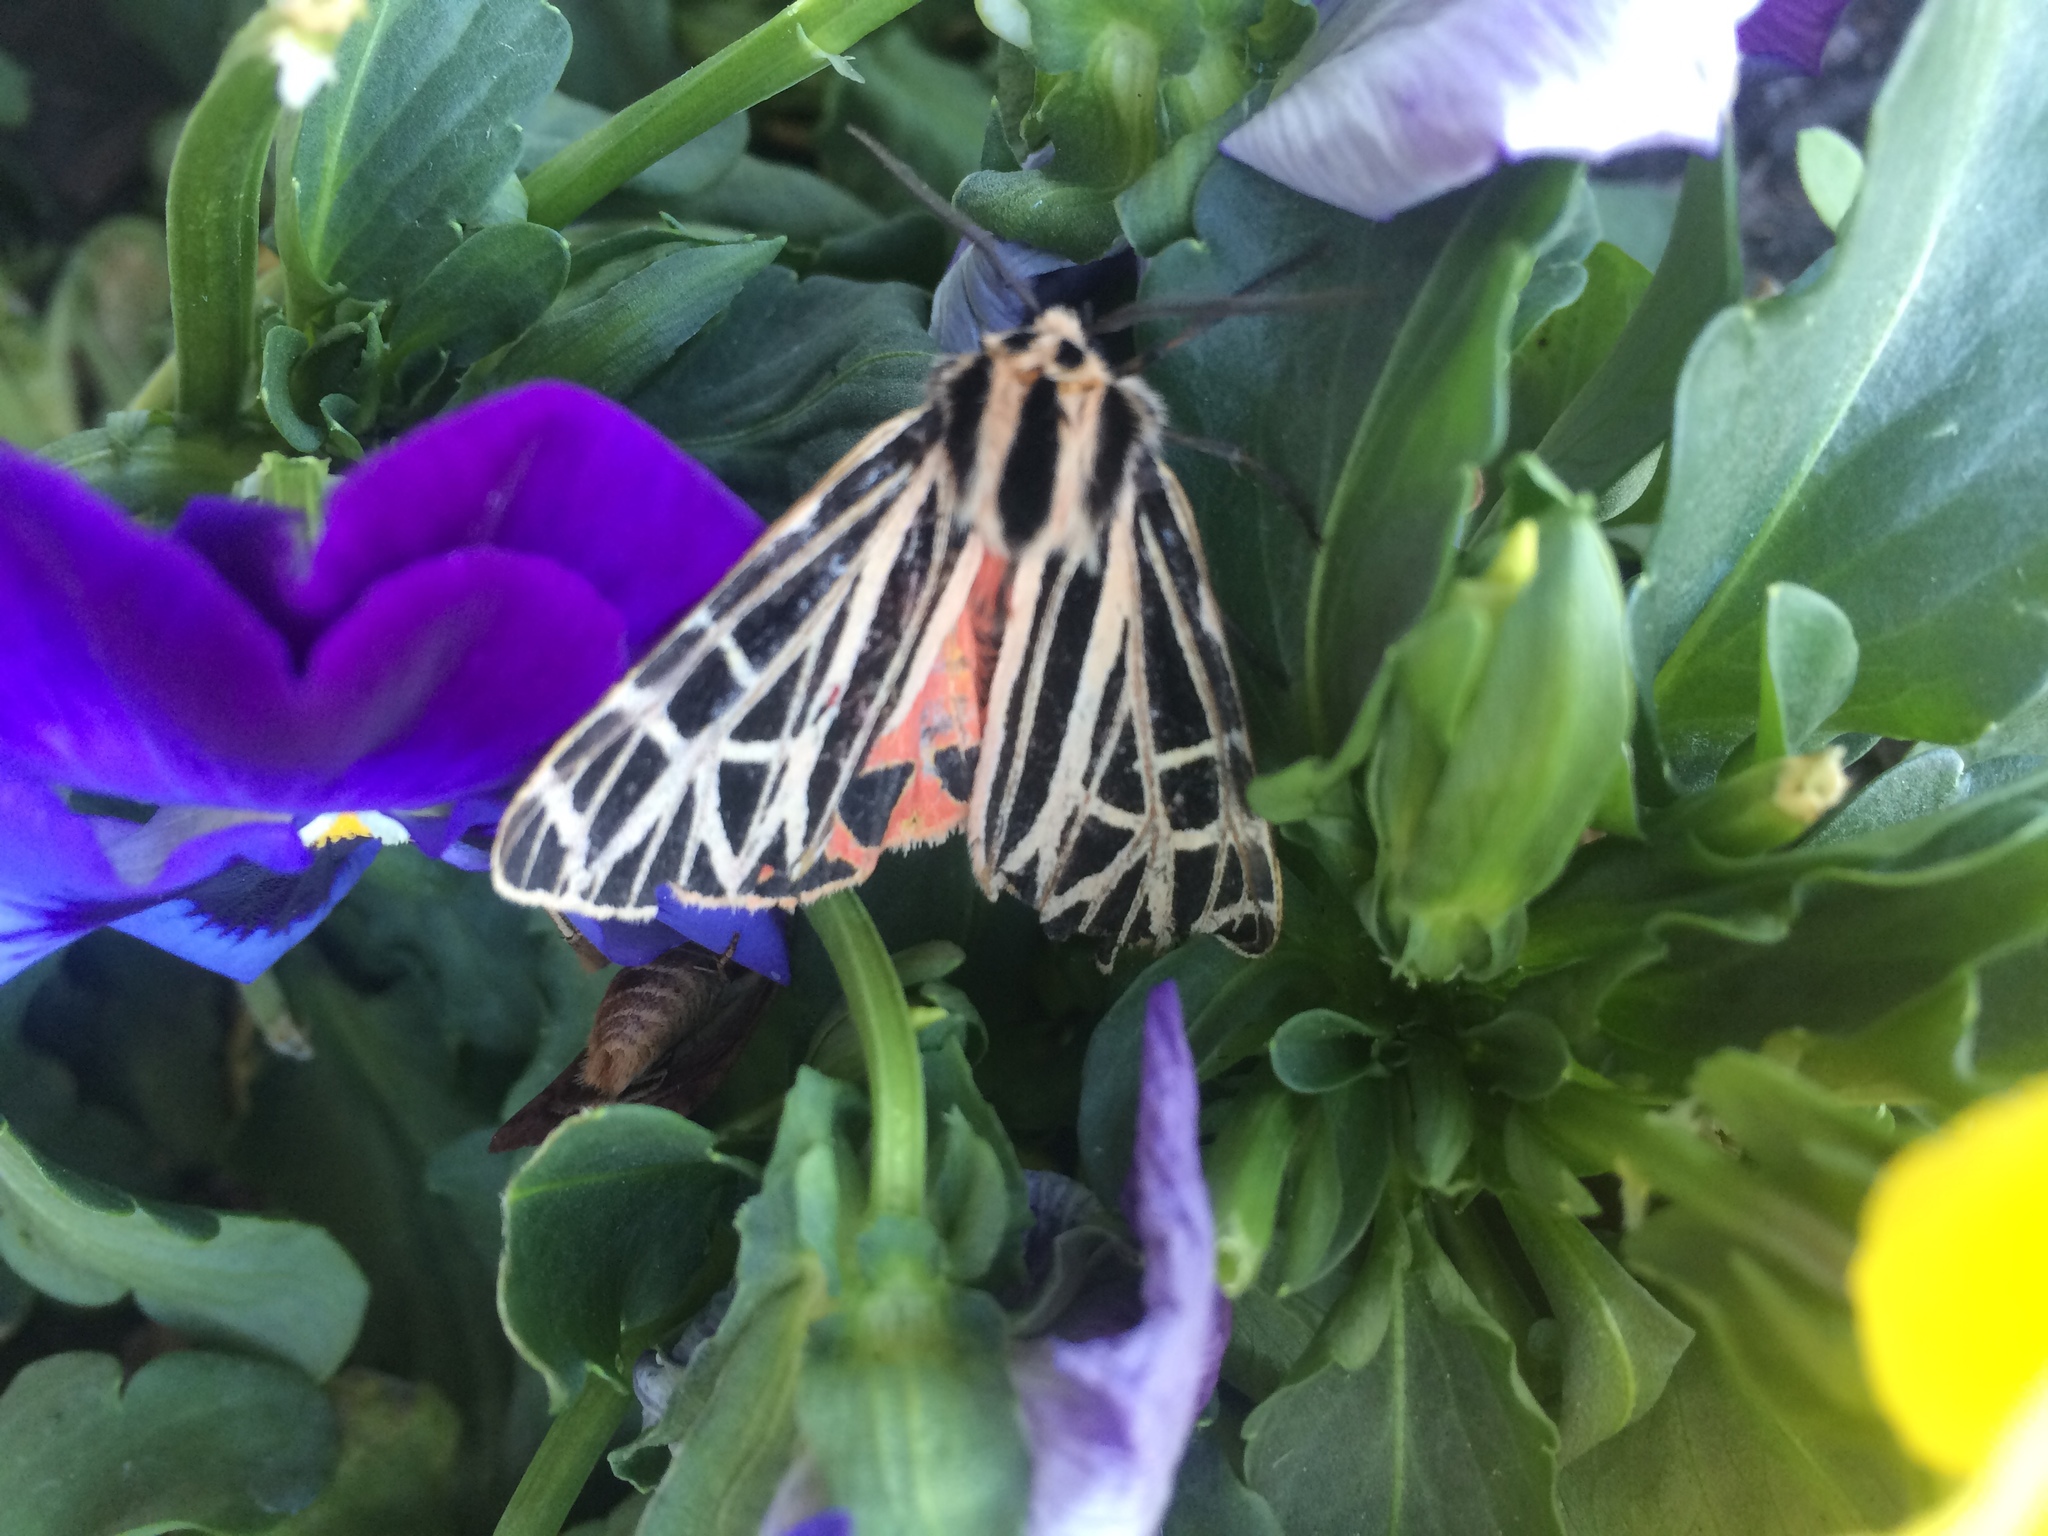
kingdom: Animalia
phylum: Arthropoda
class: Insecta
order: Lepidoptera
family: Erebidae
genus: Grammia
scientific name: Grammia virgo
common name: Virgin tiger moth
